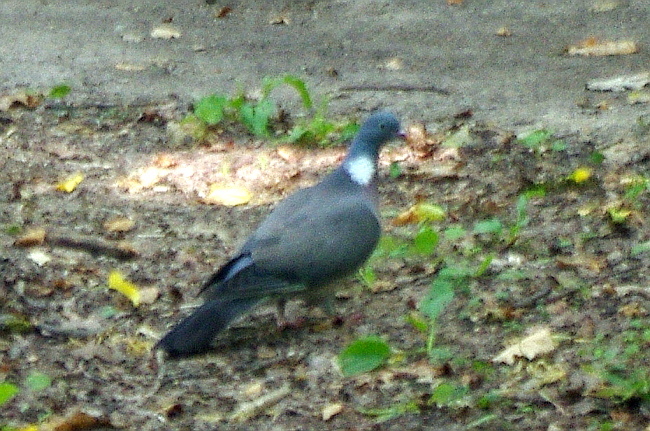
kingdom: Animalia
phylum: Chordata
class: Aves
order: Columbiformes
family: Columbidae
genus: Columba
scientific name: Columba palumbus
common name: Common wood pigeon
